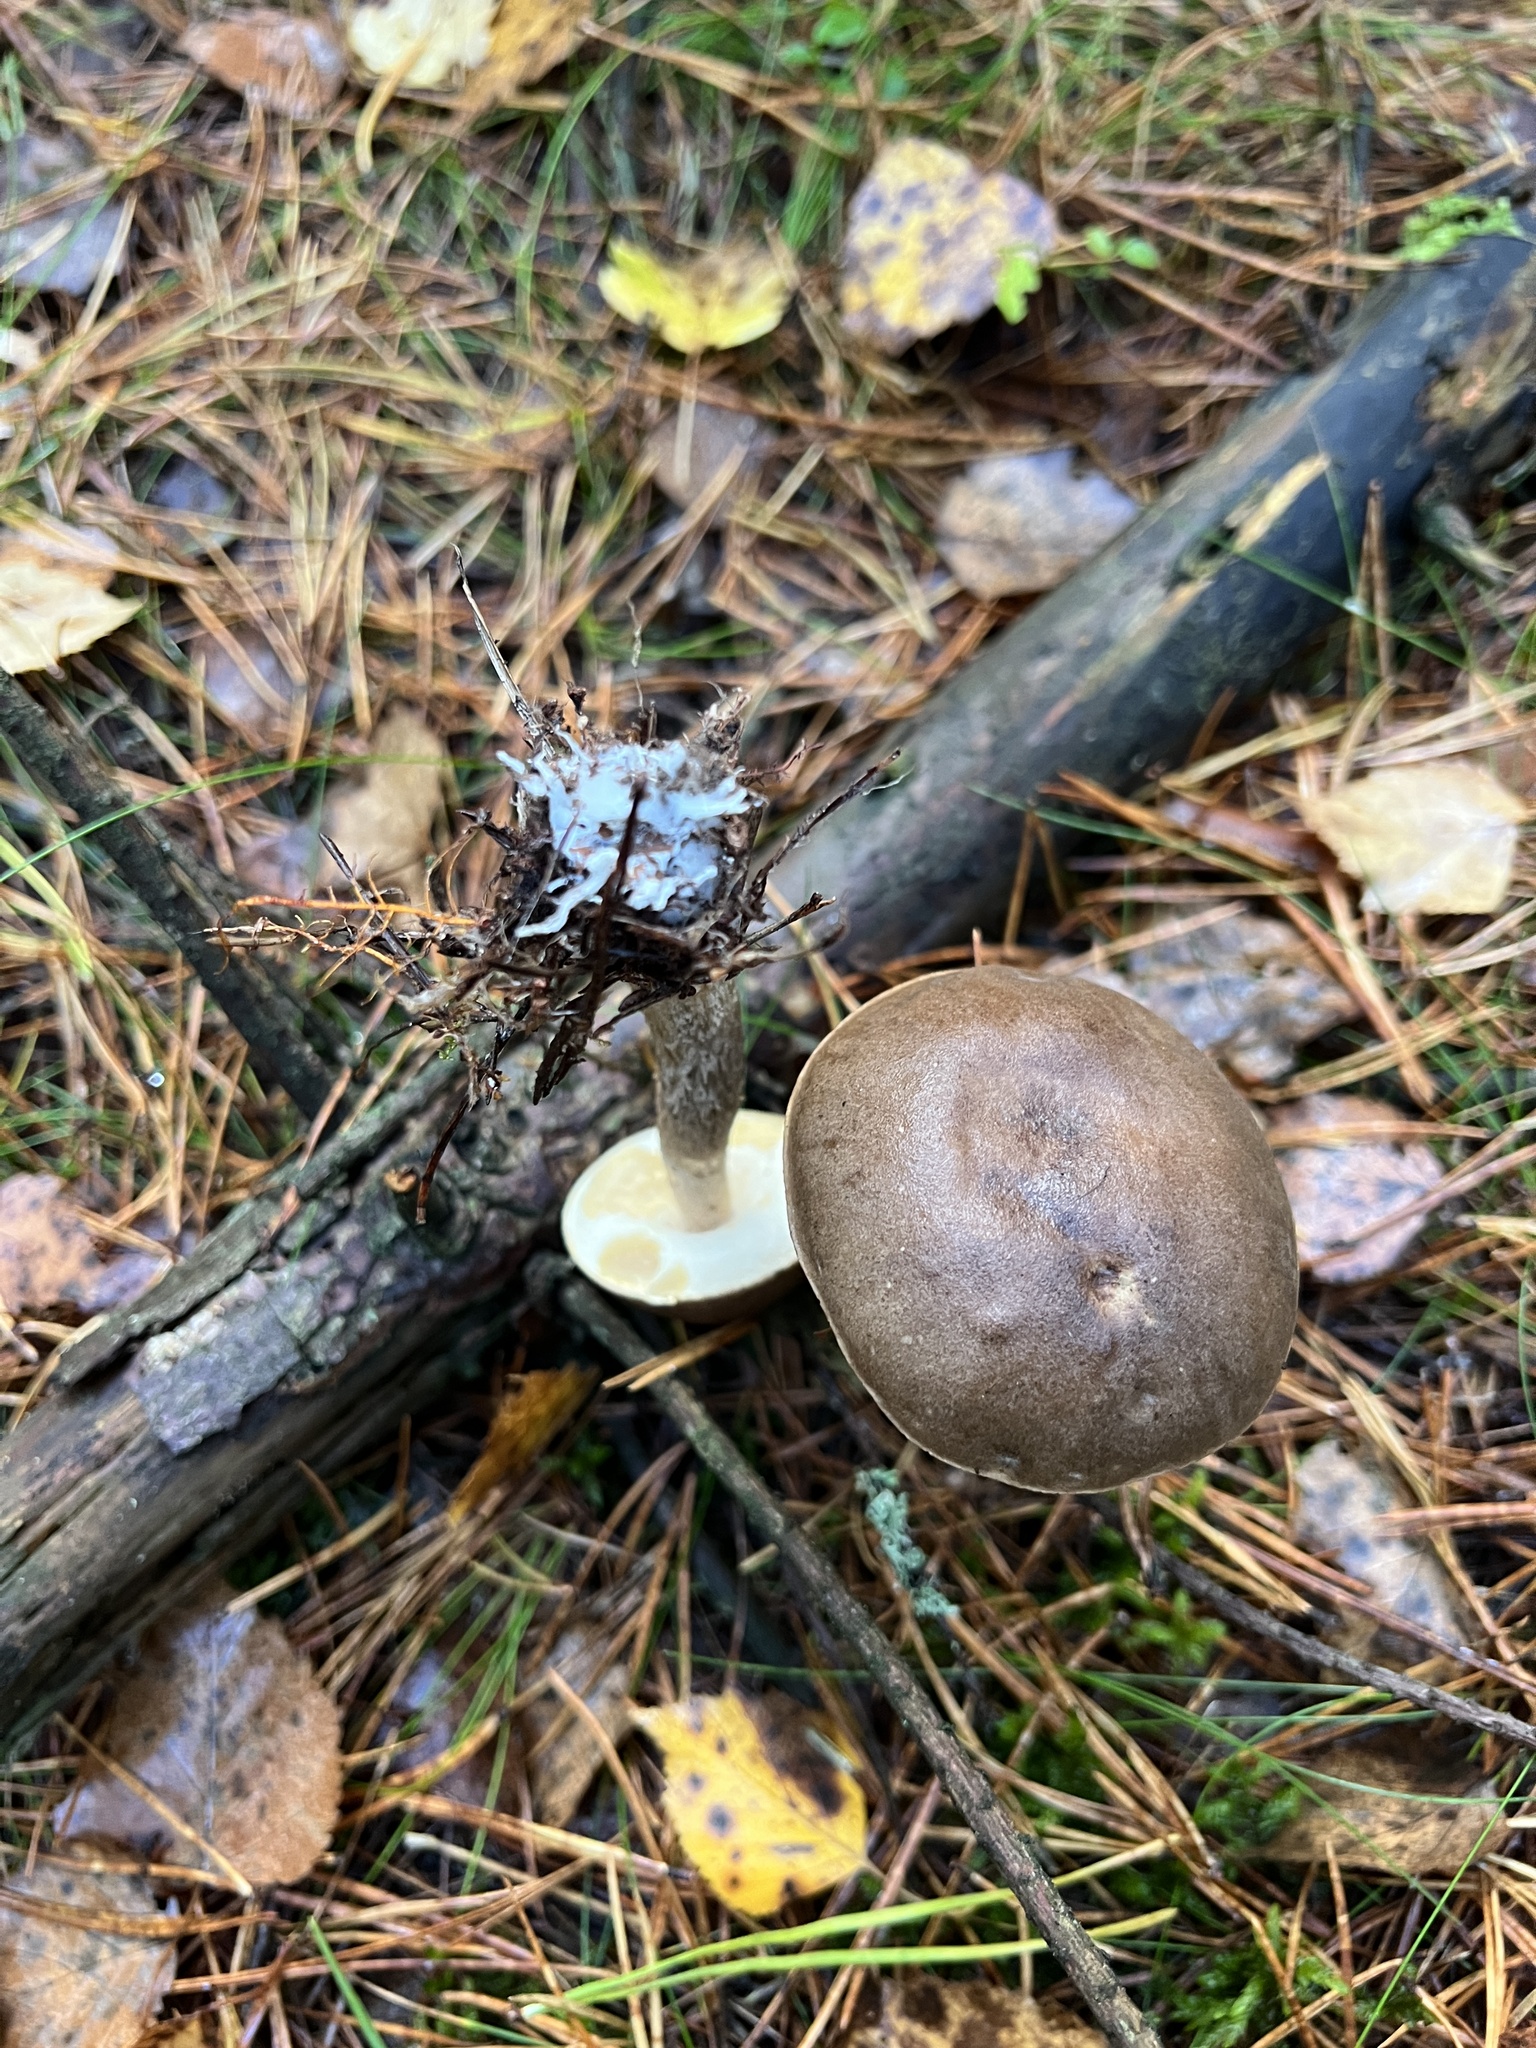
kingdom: Fungi
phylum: Basidiomycota
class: Agaricomycetes
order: Boletales
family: Boletaceae
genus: Leccinum
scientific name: Leccinum scabrum
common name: Blushing bolete
